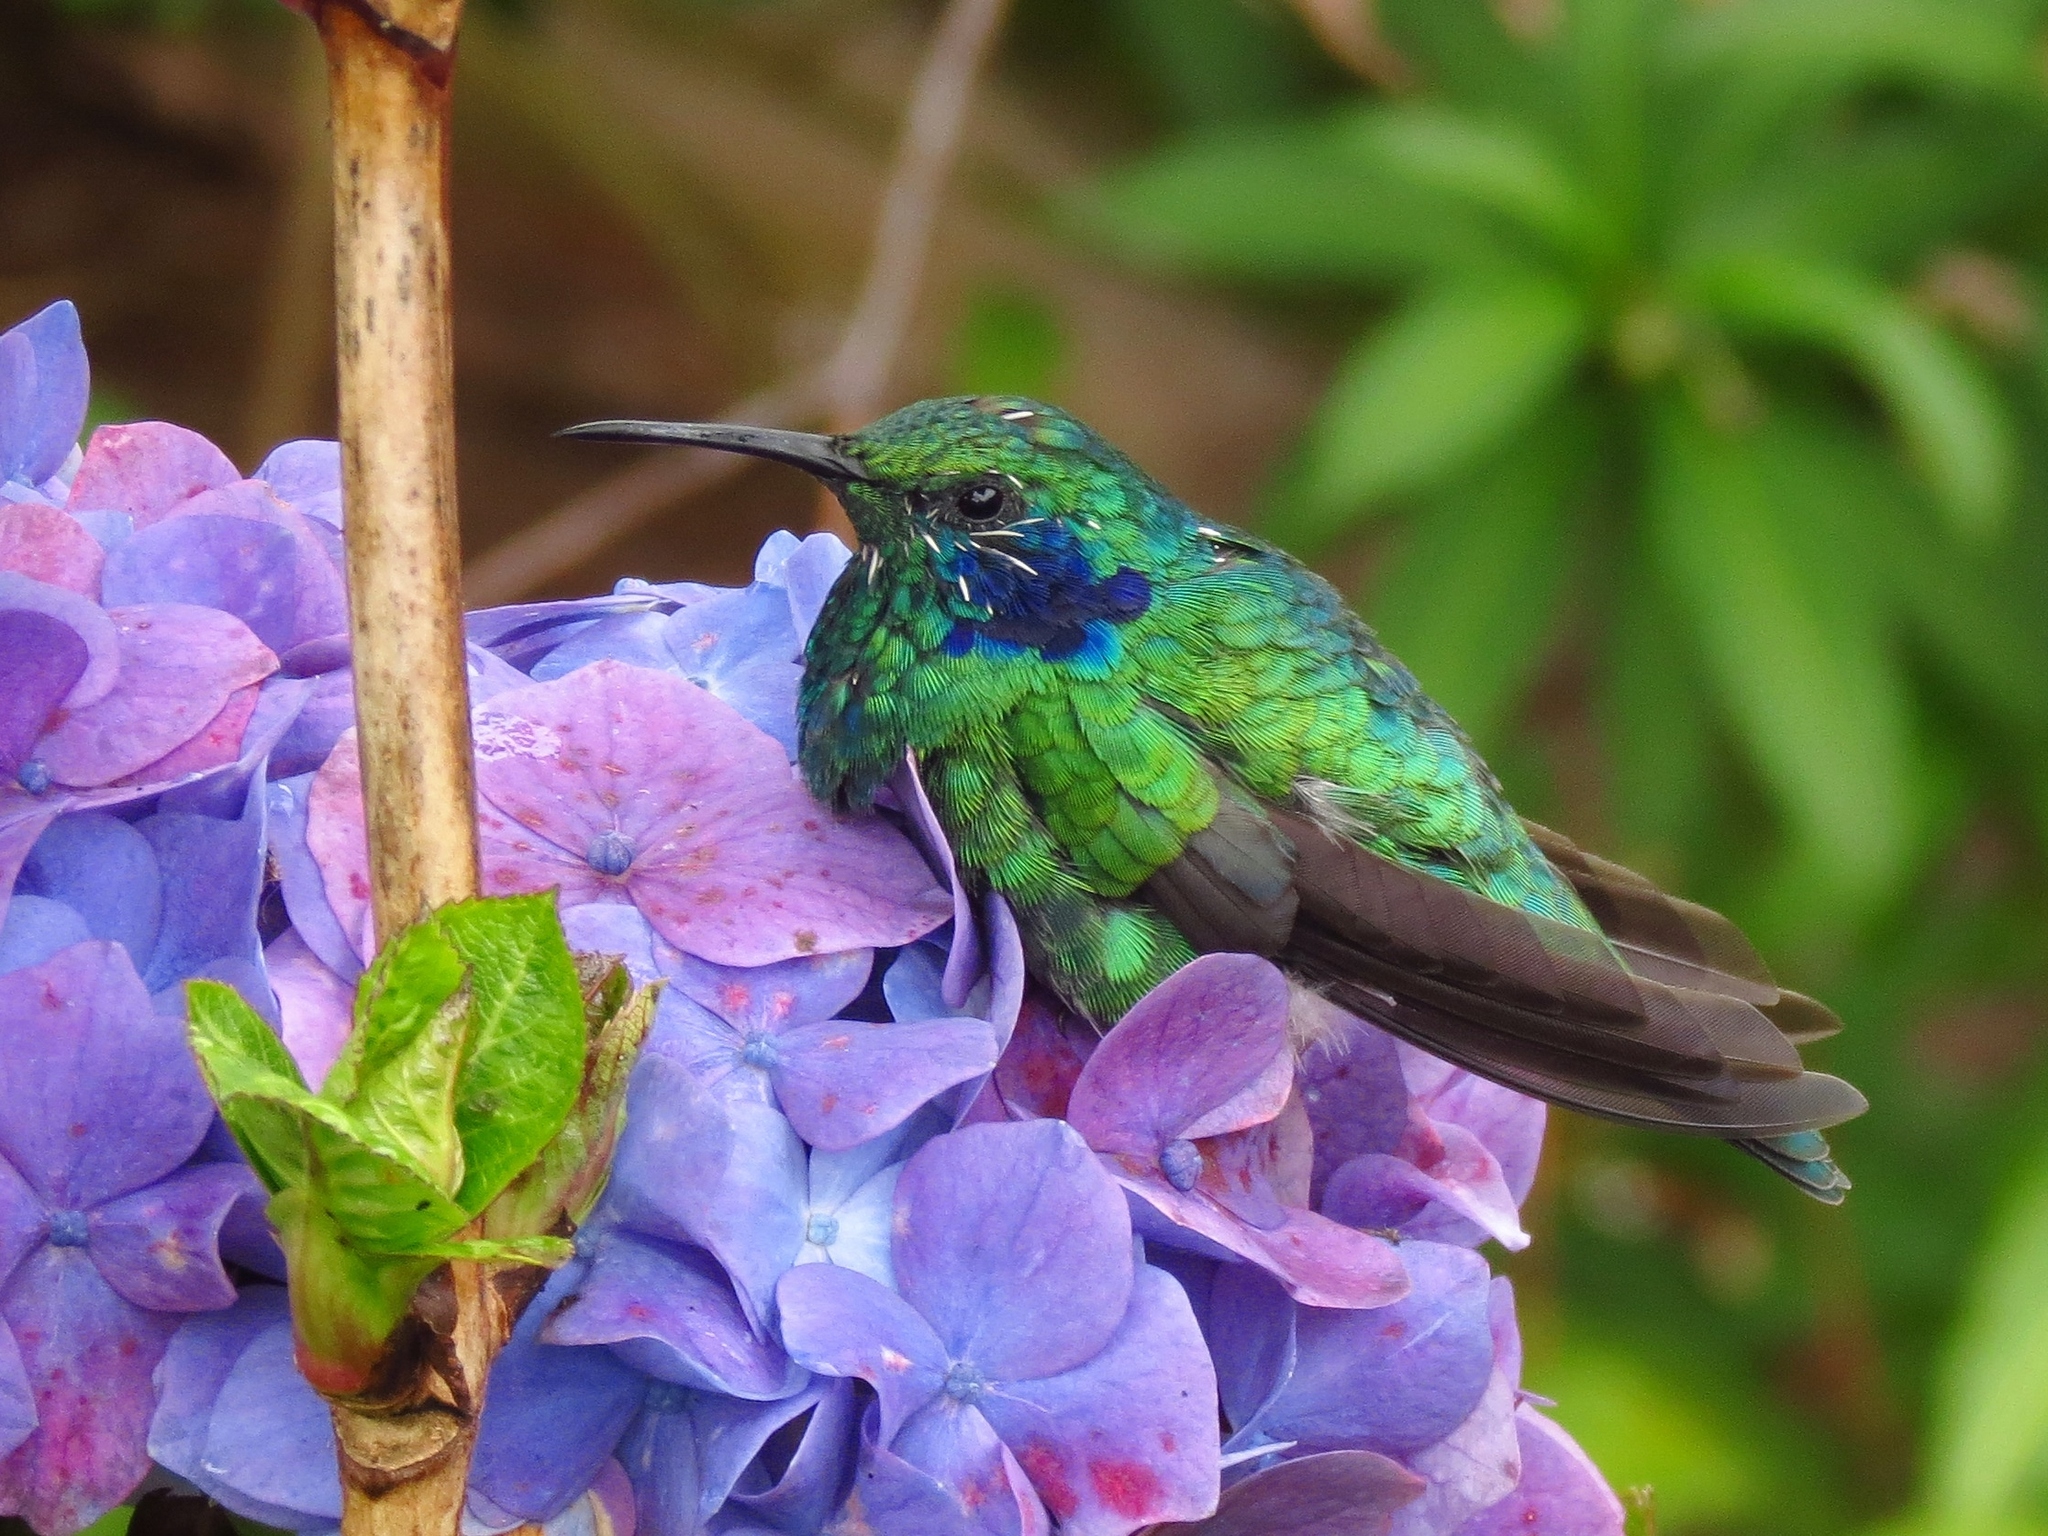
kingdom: Animalia
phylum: Chordata
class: Aves
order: Apodiformes
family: Trochilidae
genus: Colibri
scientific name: Colibri cyanotus
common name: Lesser violetear
